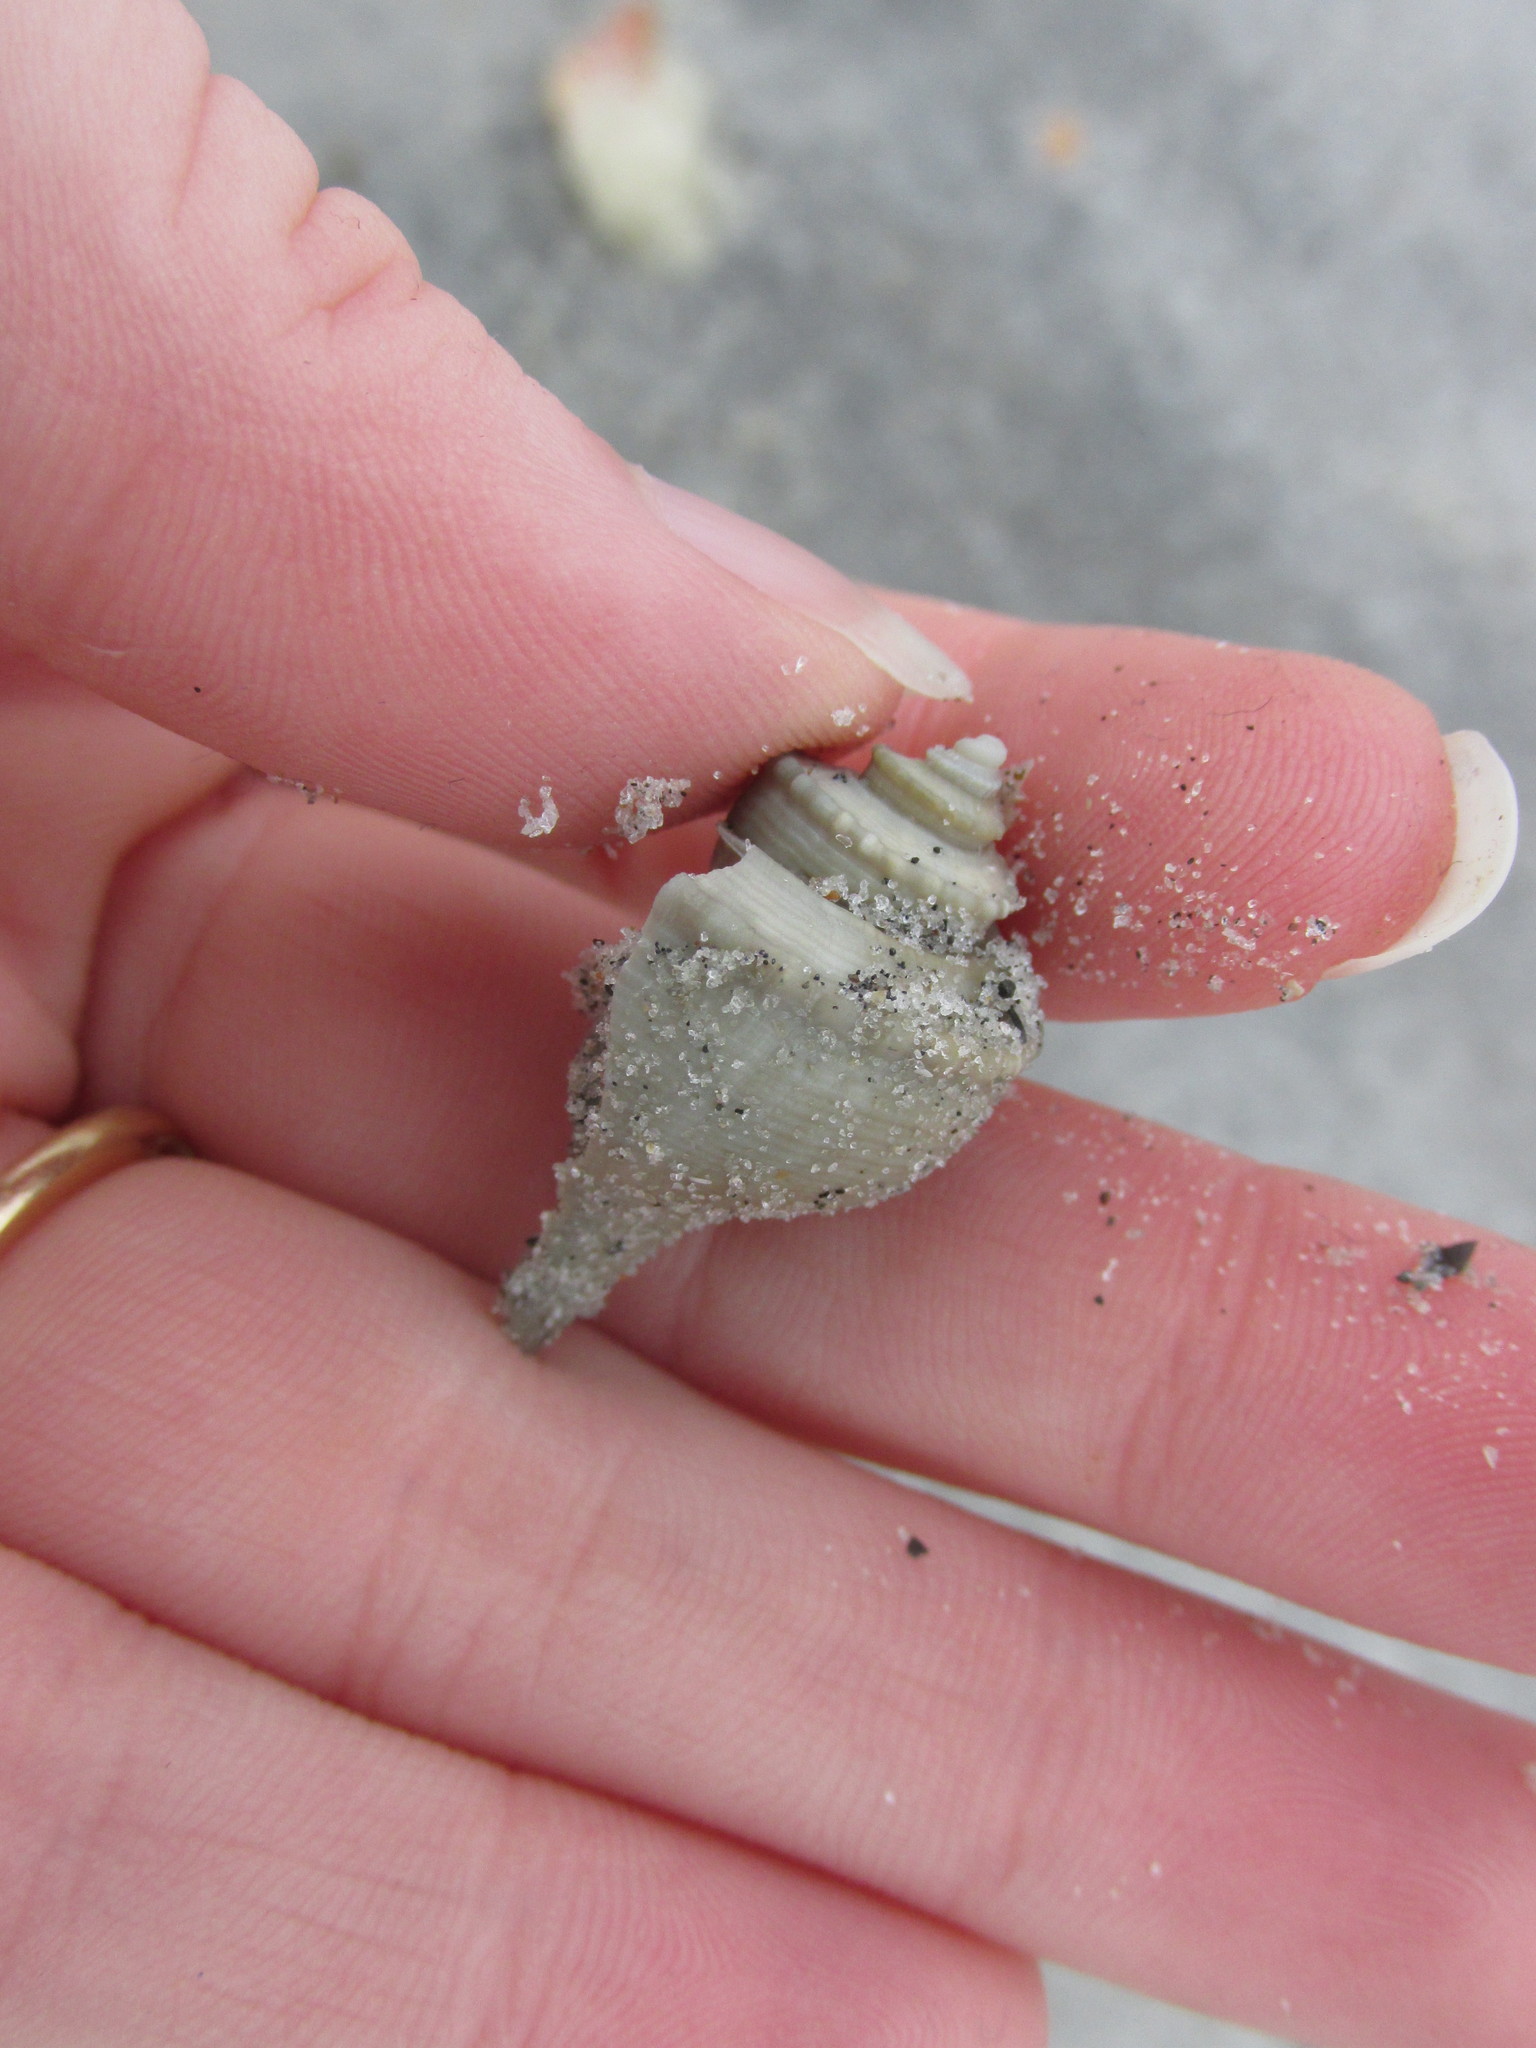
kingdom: Animalia
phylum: Mollusca
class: Gastropoda
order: Neogastropoda
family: Busyconidae
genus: Busycotypus
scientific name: Busycotypus canaliculatus
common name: Channeled whelk
